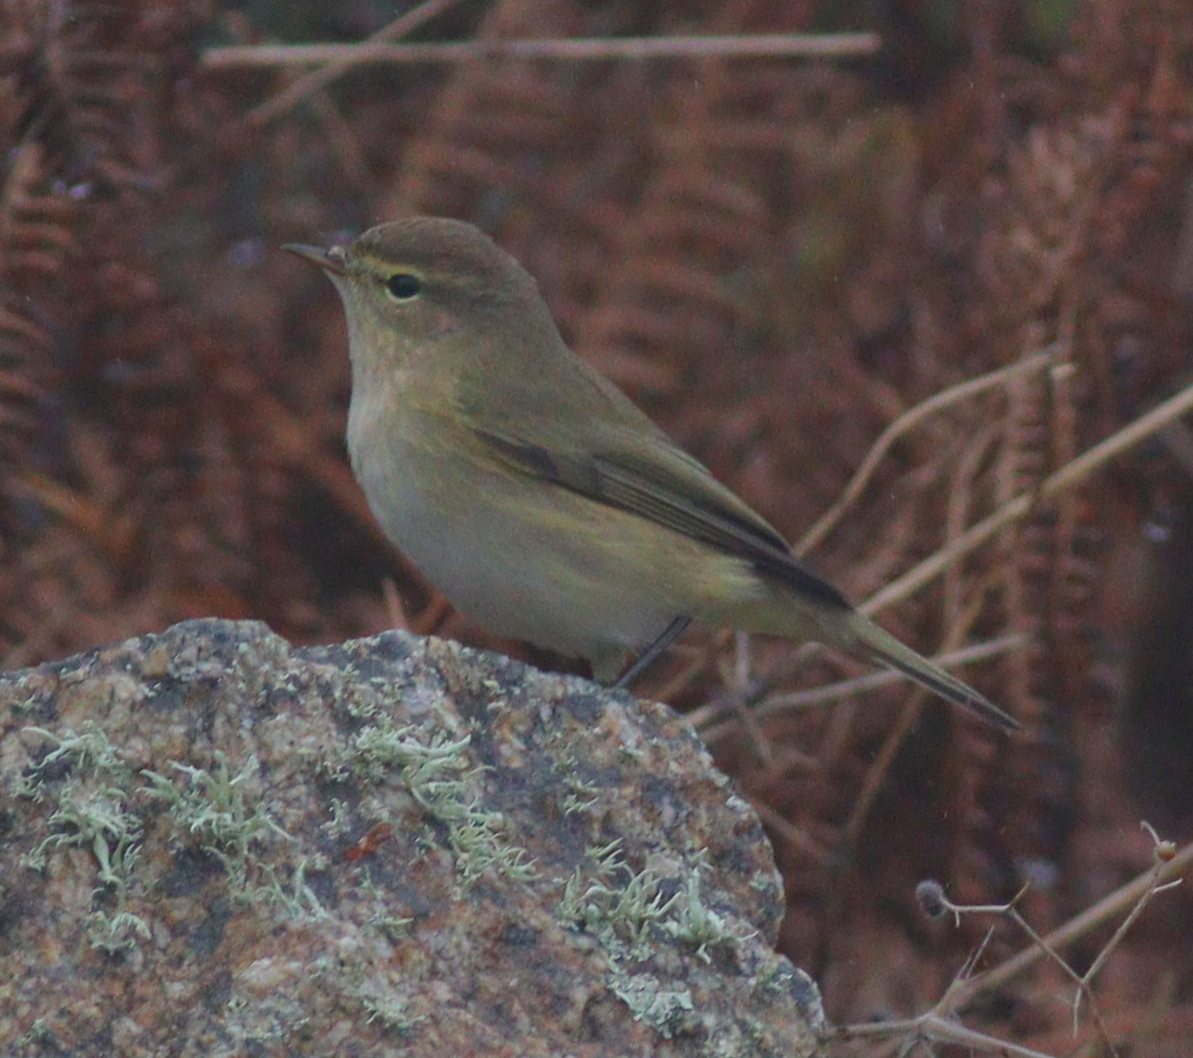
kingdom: Animalia
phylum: Chordata
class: Aves
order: Passeriformes
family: Phylloscopidae
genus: Phylloscopus
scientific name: Phylloscopus collybita
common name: Common chiffchaff
